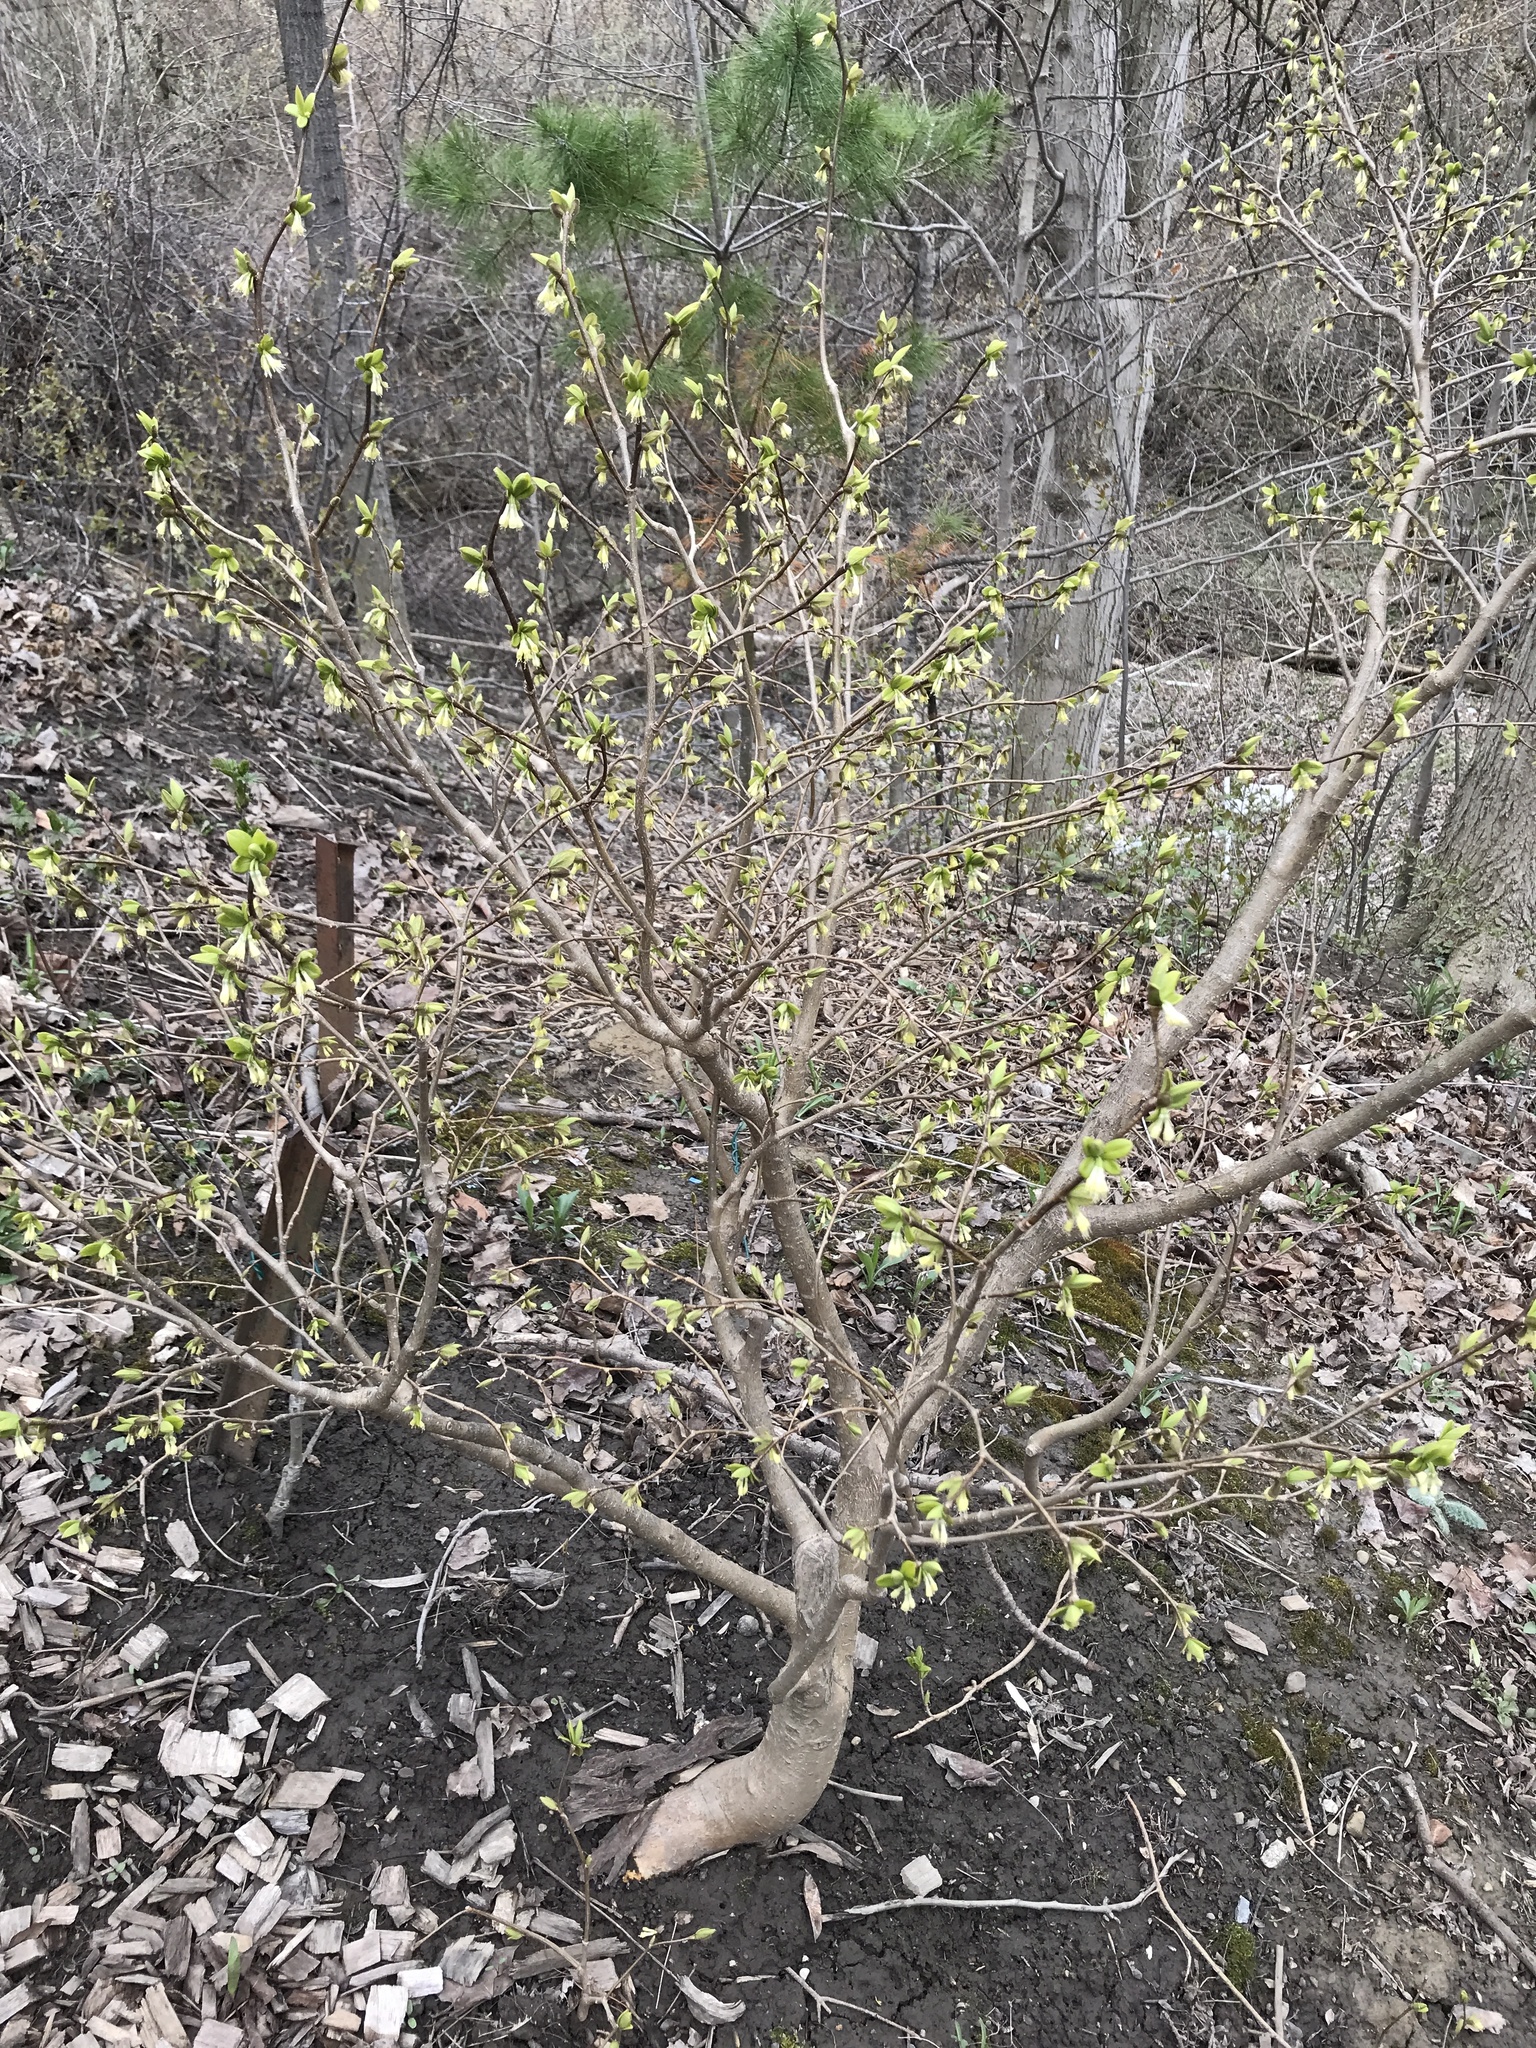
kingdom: Plantae
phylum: Tracheophyta
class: Magnoliopsida
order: Malvales
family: Thymelaeaceae
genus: Dirca
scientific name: Dirca palustris
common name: Leatherwood
